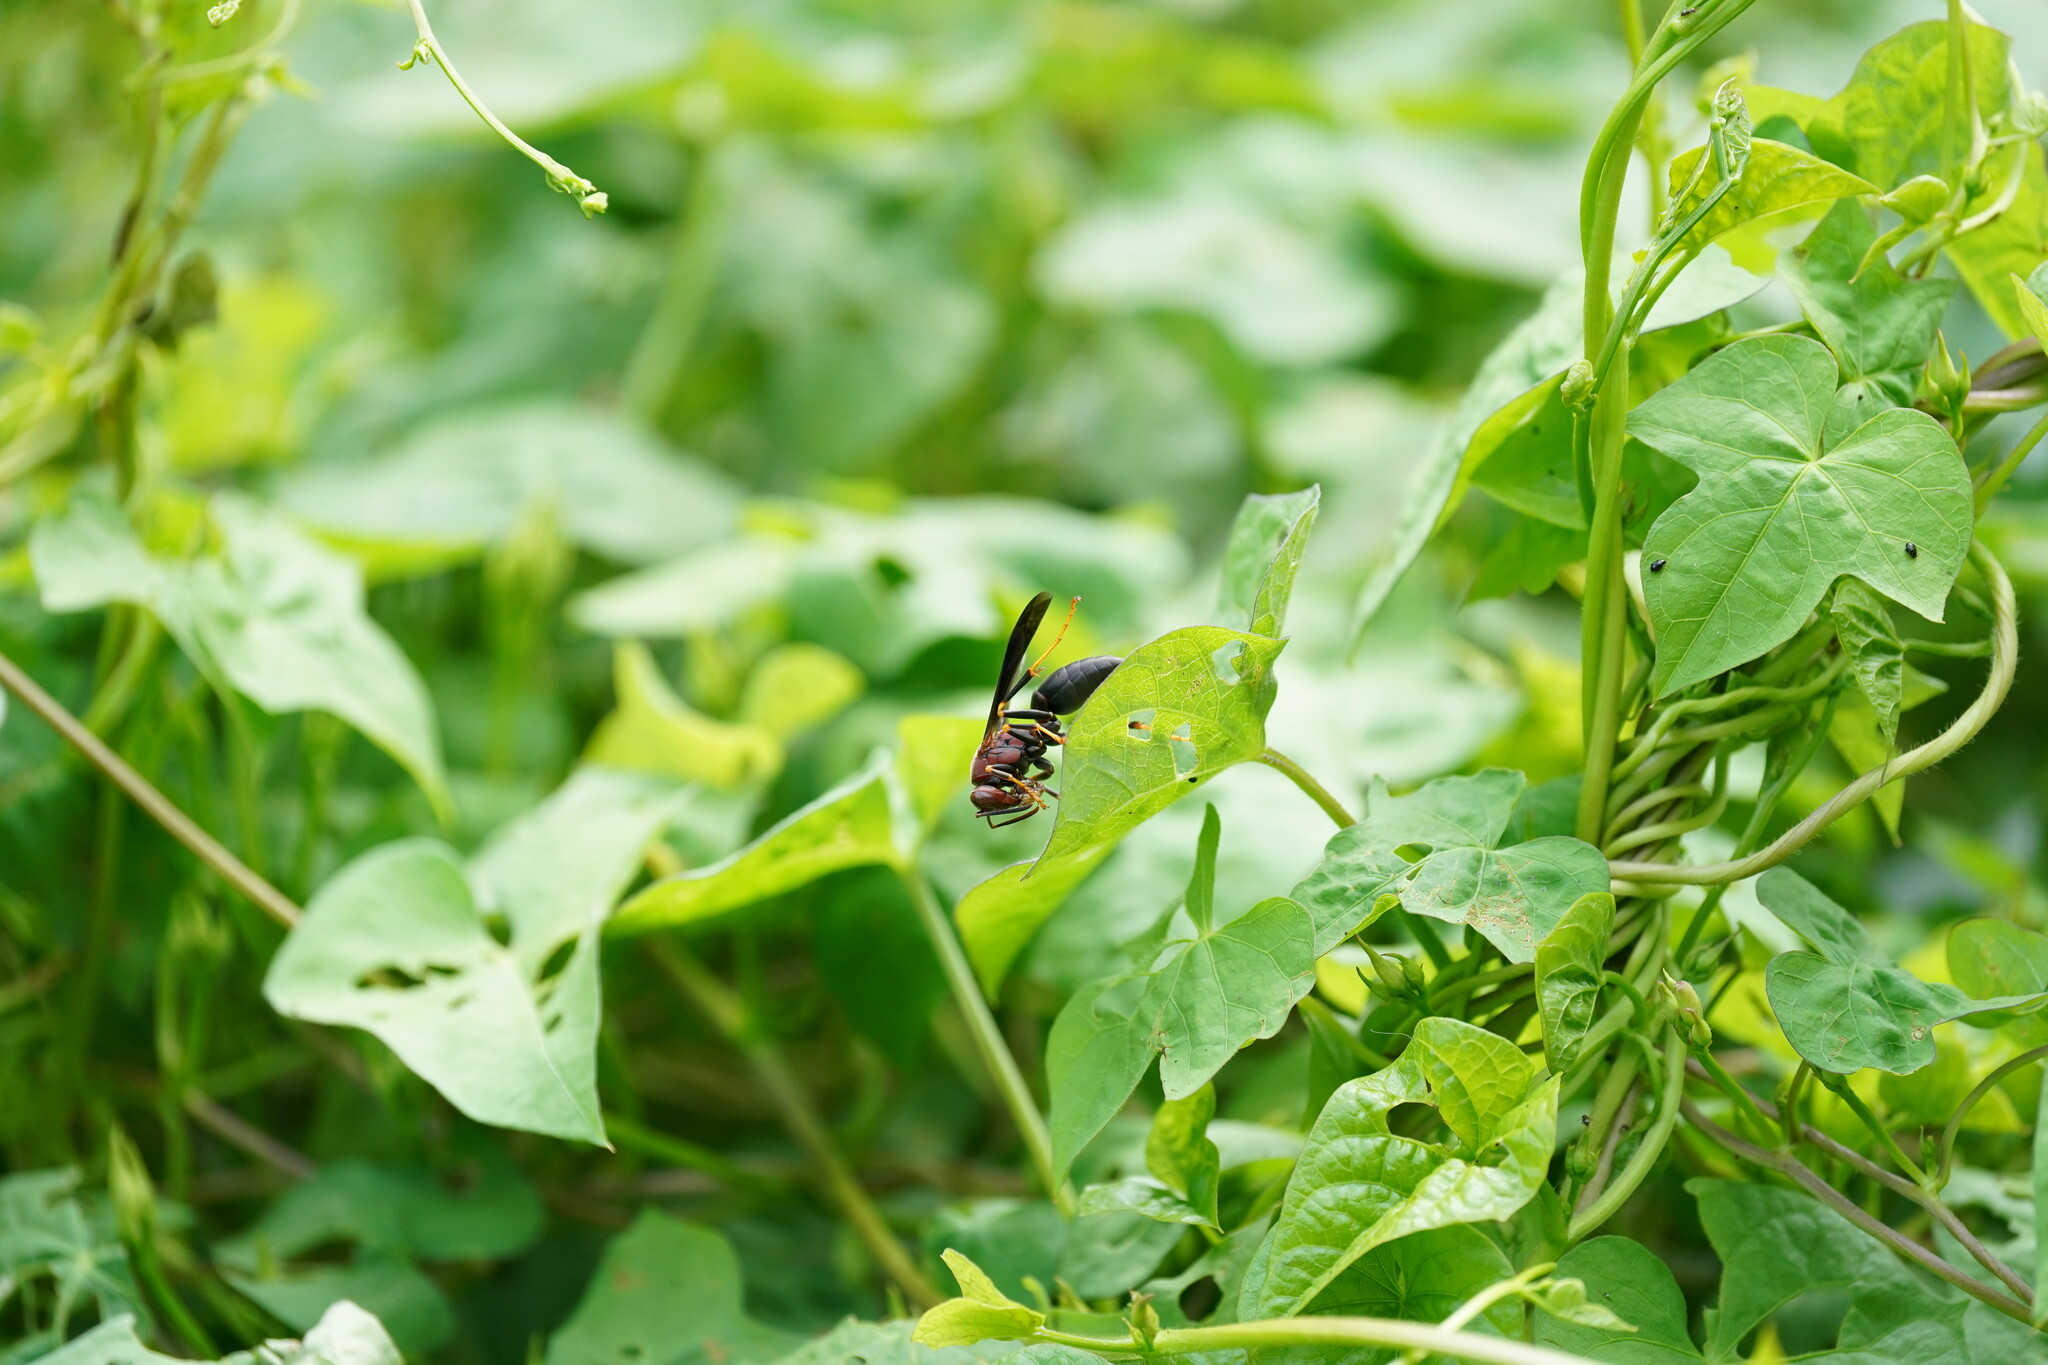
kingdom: Animalia
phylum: Arthropoda
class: Insecta
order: Hymenoptera
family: Eumenidae
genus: Polistes
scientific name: Polistes metricus
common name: Metric paper wasp
